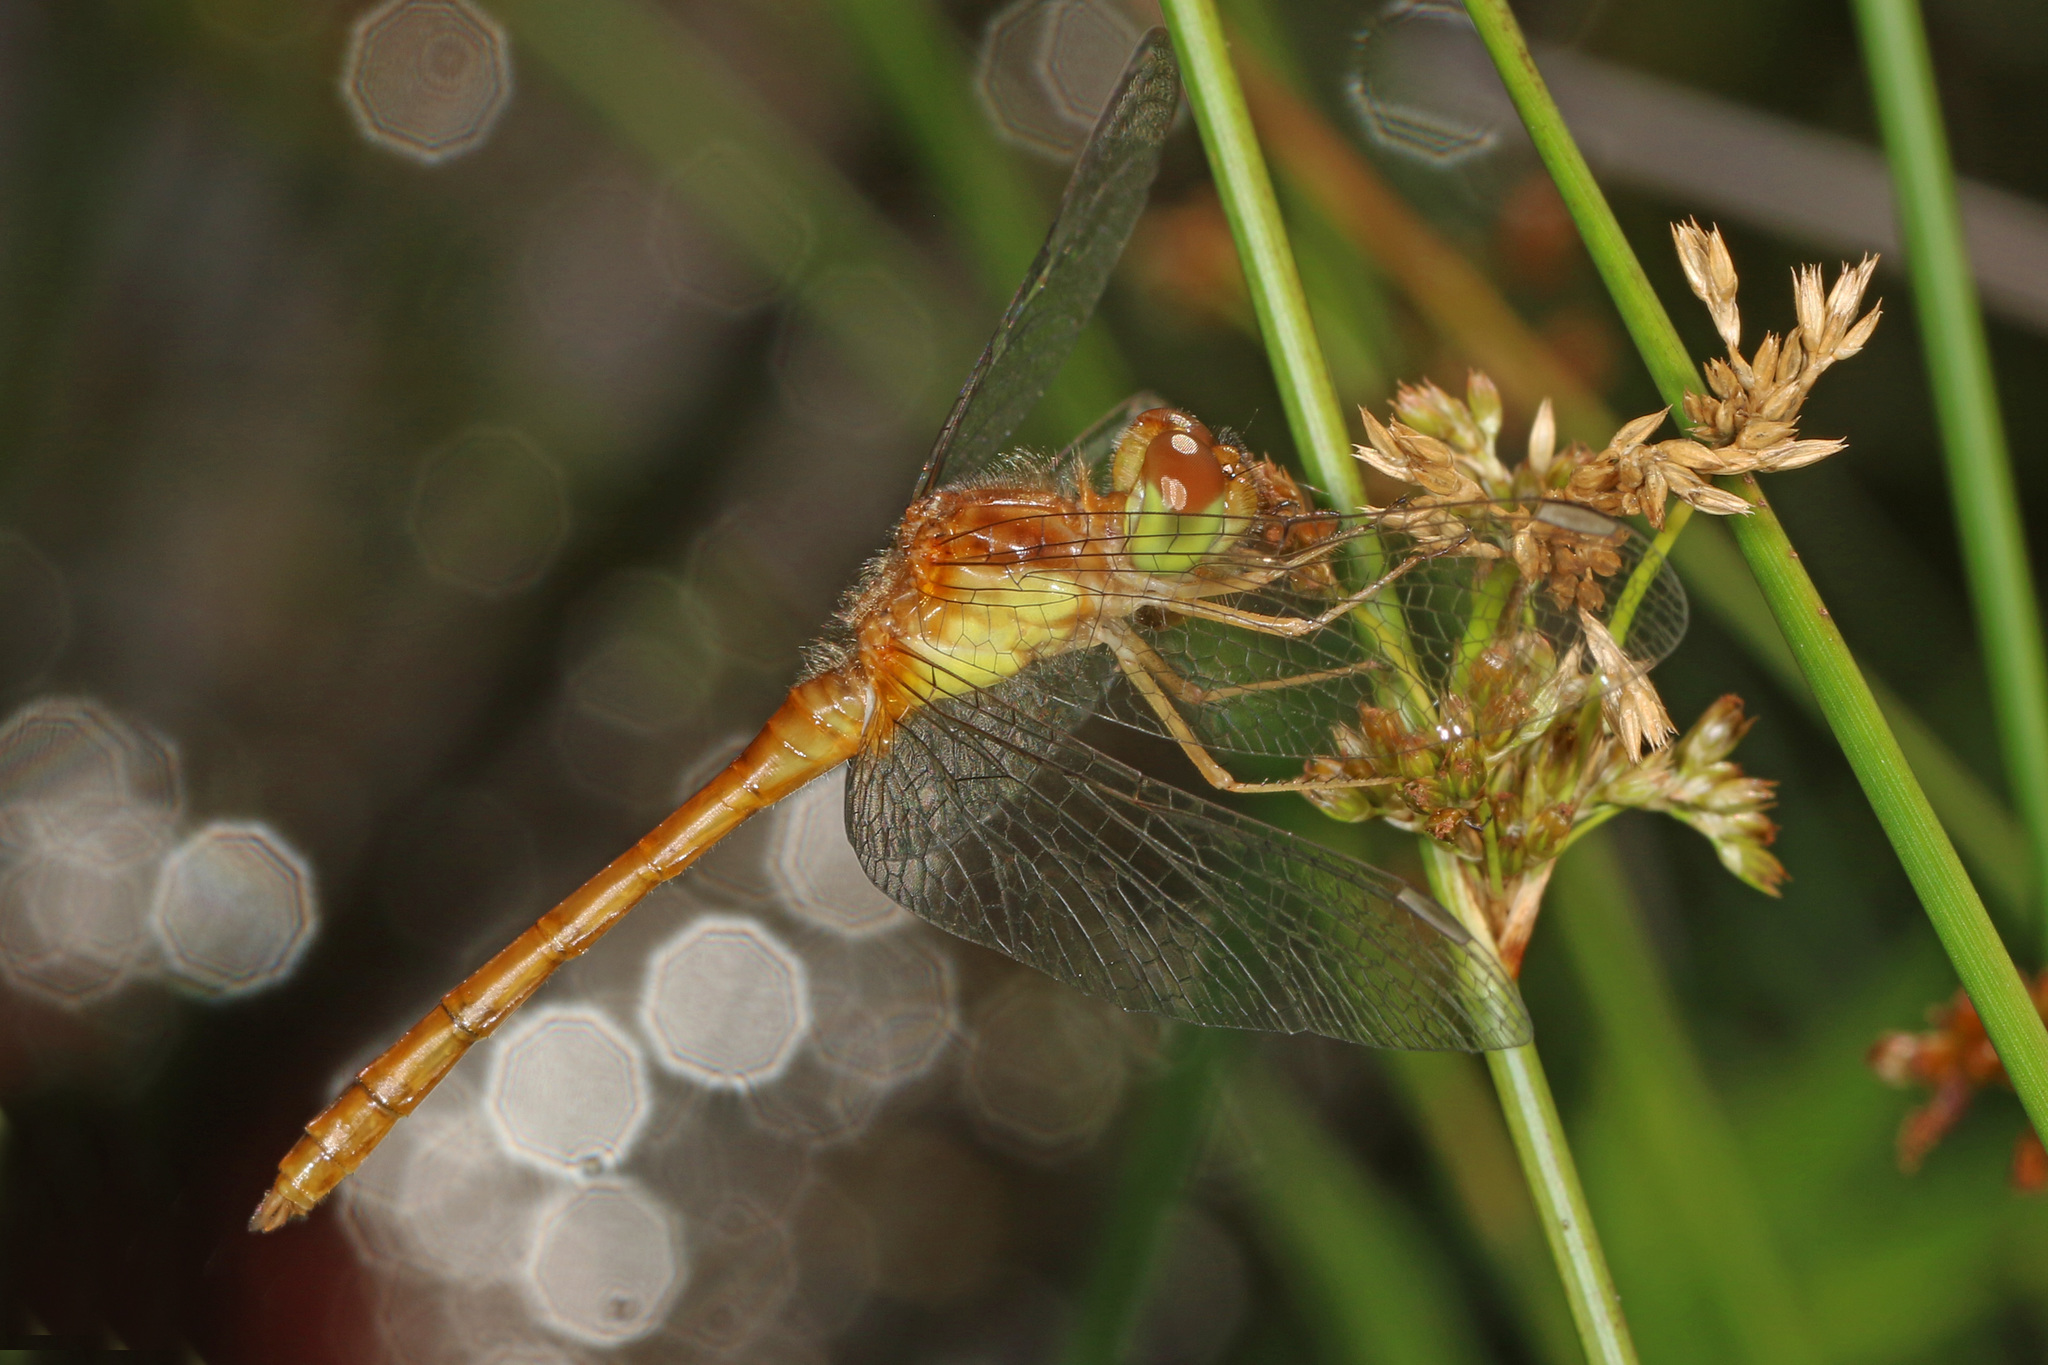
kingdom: Animalia
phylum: Arthropoda
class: Insecta
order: Odonata
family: Libellulidae
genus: Sympetrum
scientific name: Sympetrum vicinum
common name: Autumn meadowhawk
